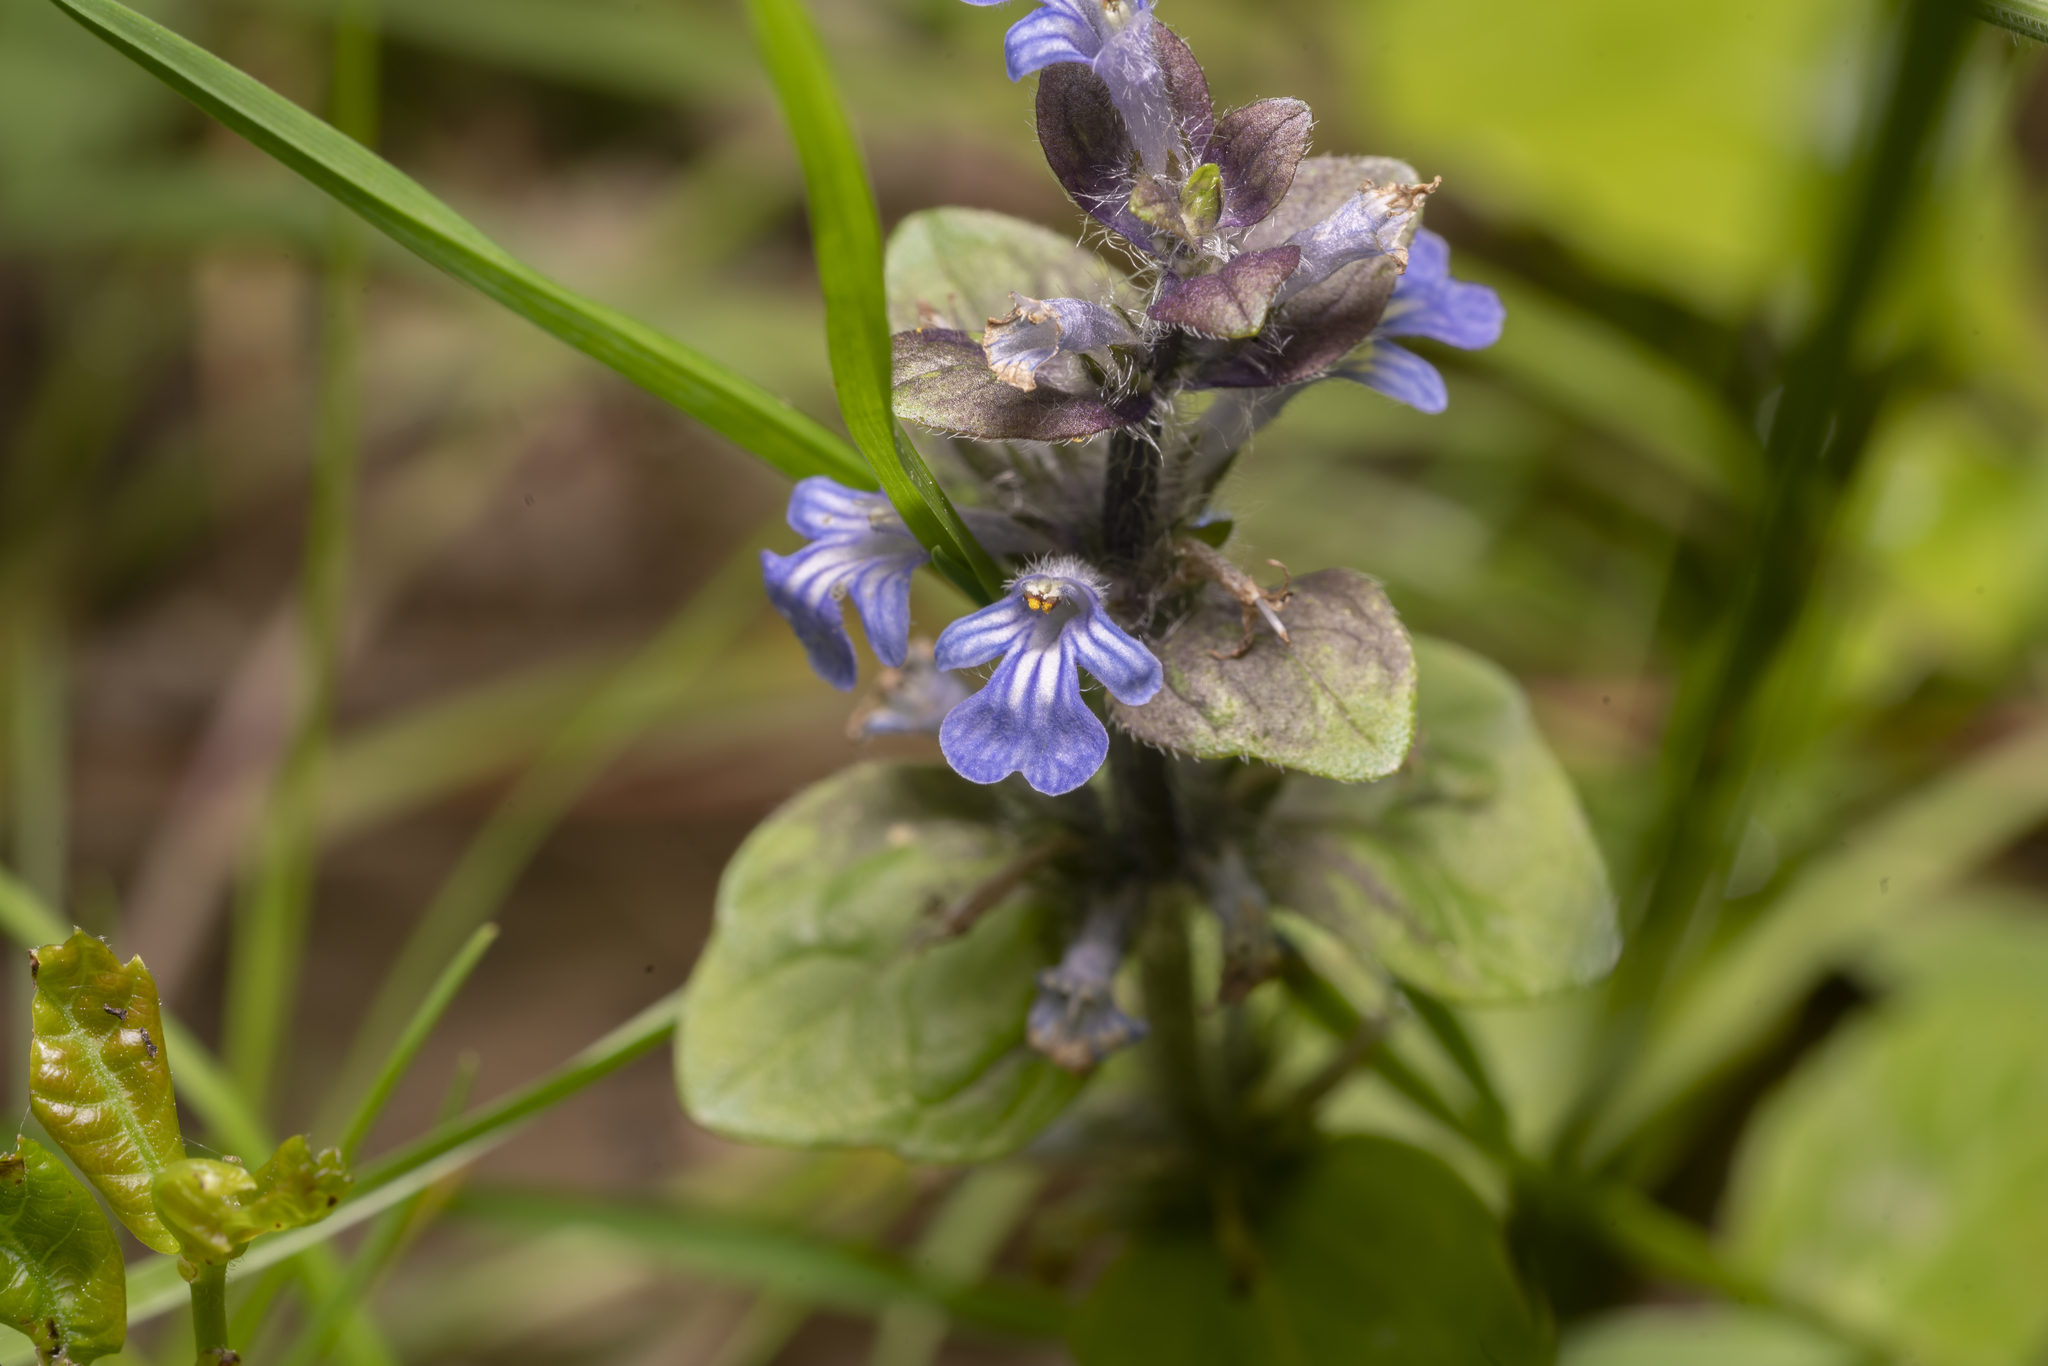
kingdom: Plantae
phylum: Tracheophyta
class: Magnoliopsida
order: Lamiales
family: Lamiaceae
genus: Ajuga
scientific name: Ajuga reptans
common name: Bugle
